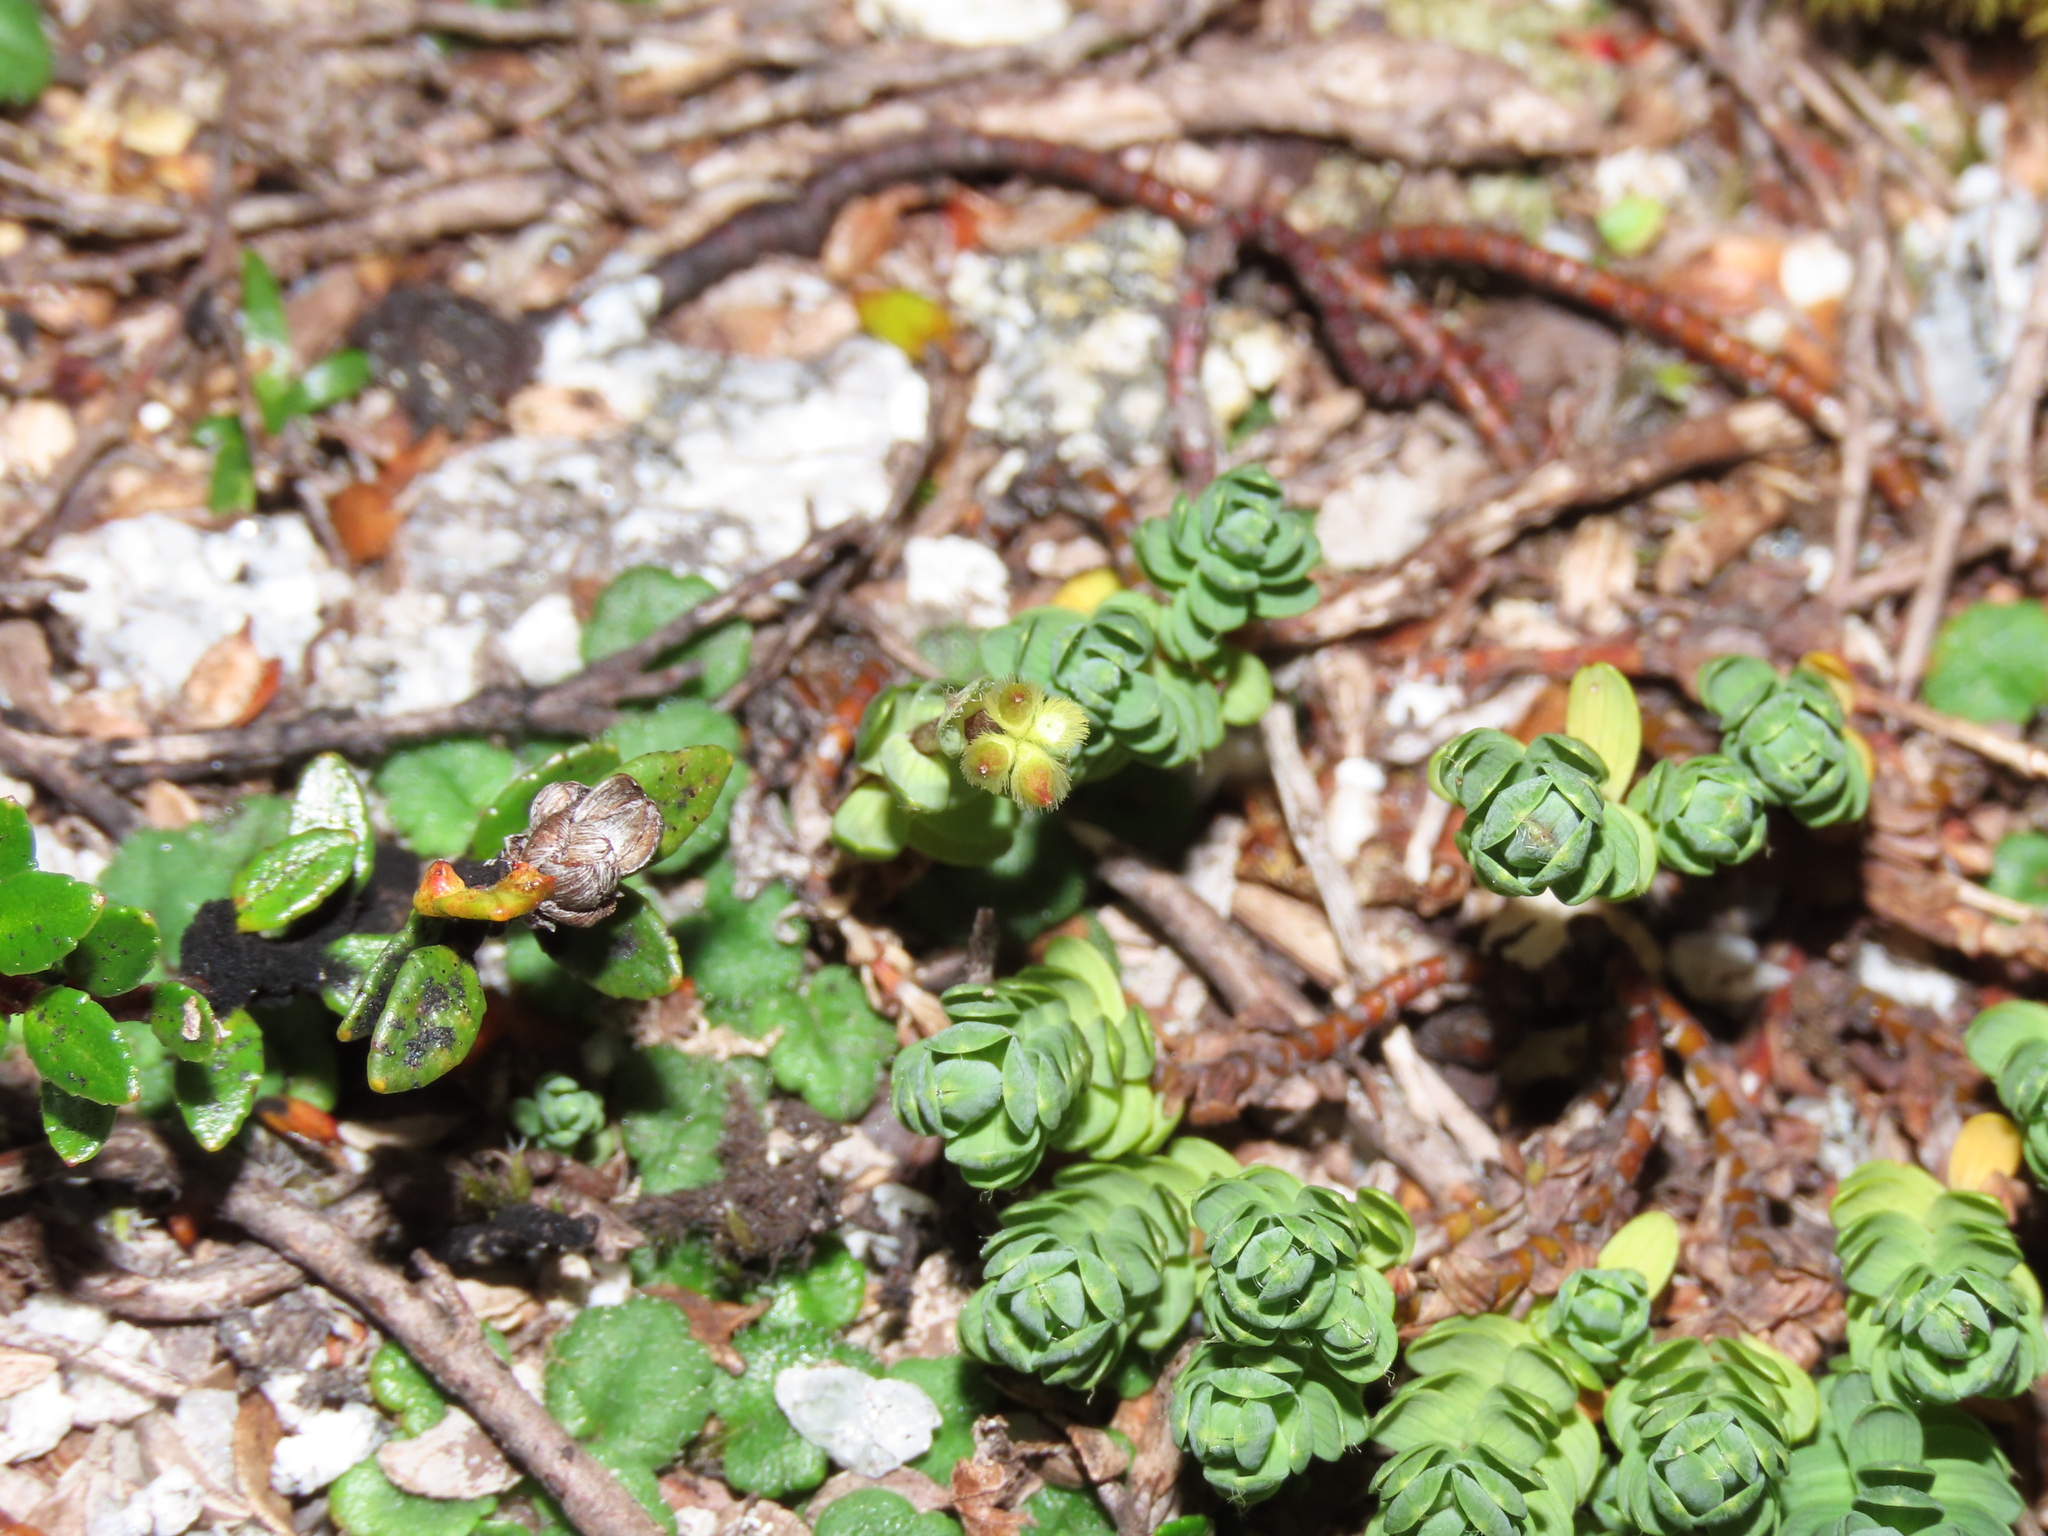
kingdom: Plantae
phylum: Tracheophyta
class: Magnoliopsida
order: Malvales
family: Thymelaeaceae
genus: Drapetes
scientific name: Drapetes muscosus
